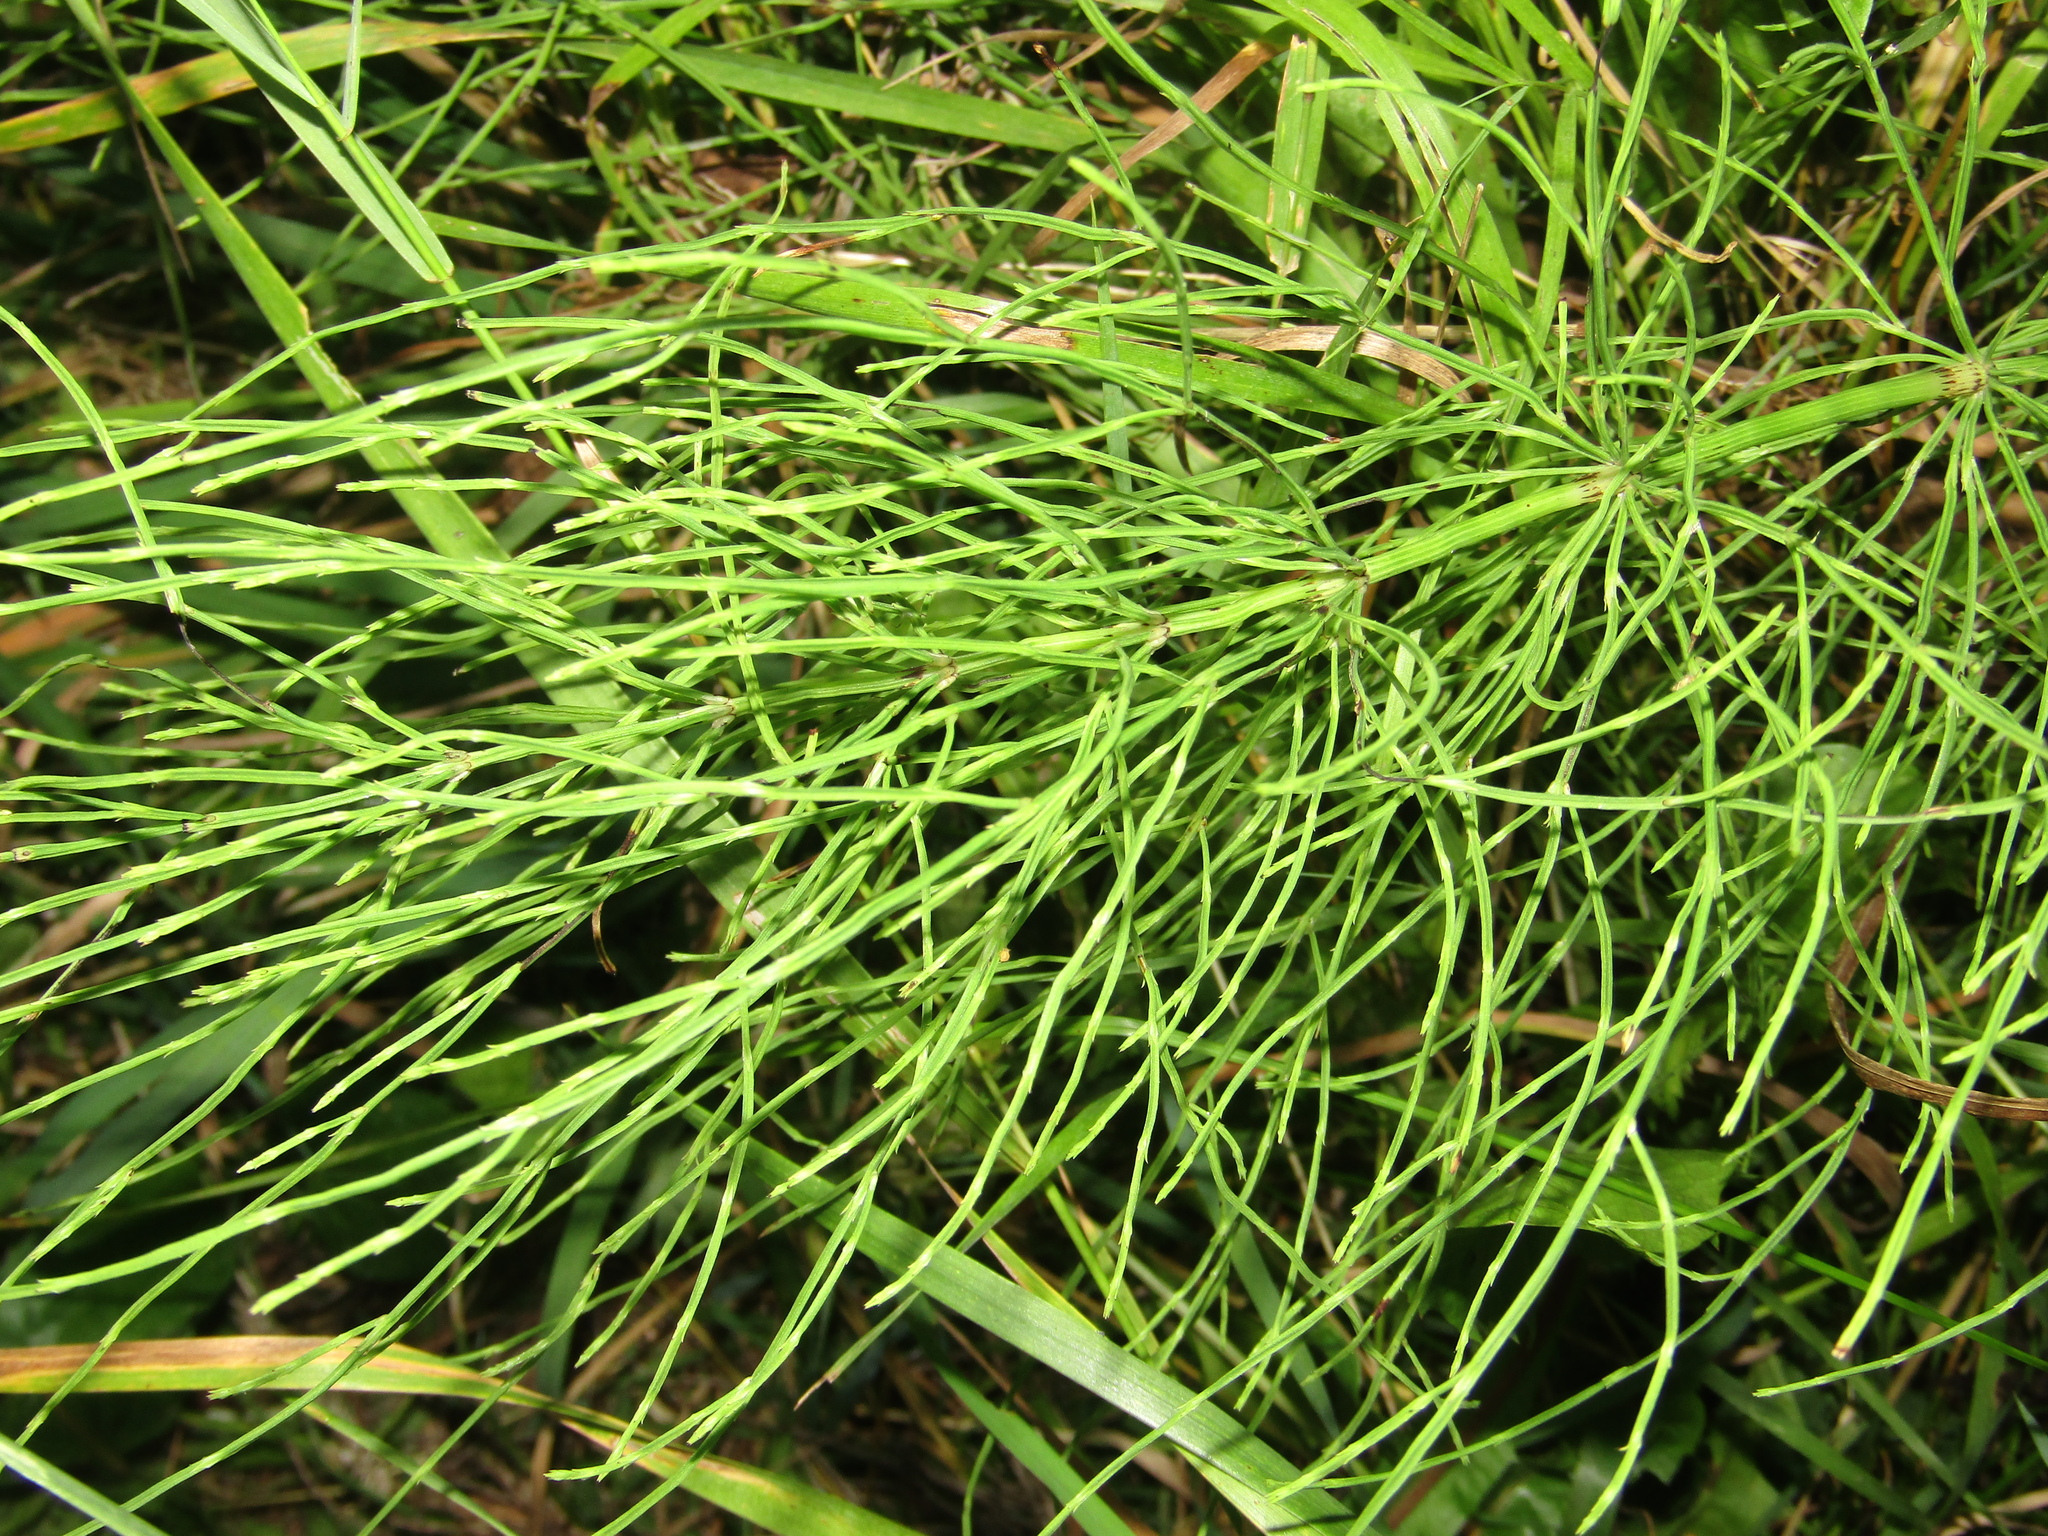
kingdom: Plantae
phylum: Tracheophyta
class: Polypodiopsida
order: Equisetales
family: Equisetaceae
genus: Equisetum
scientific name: Equisetum arvense
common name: Field horsetail
